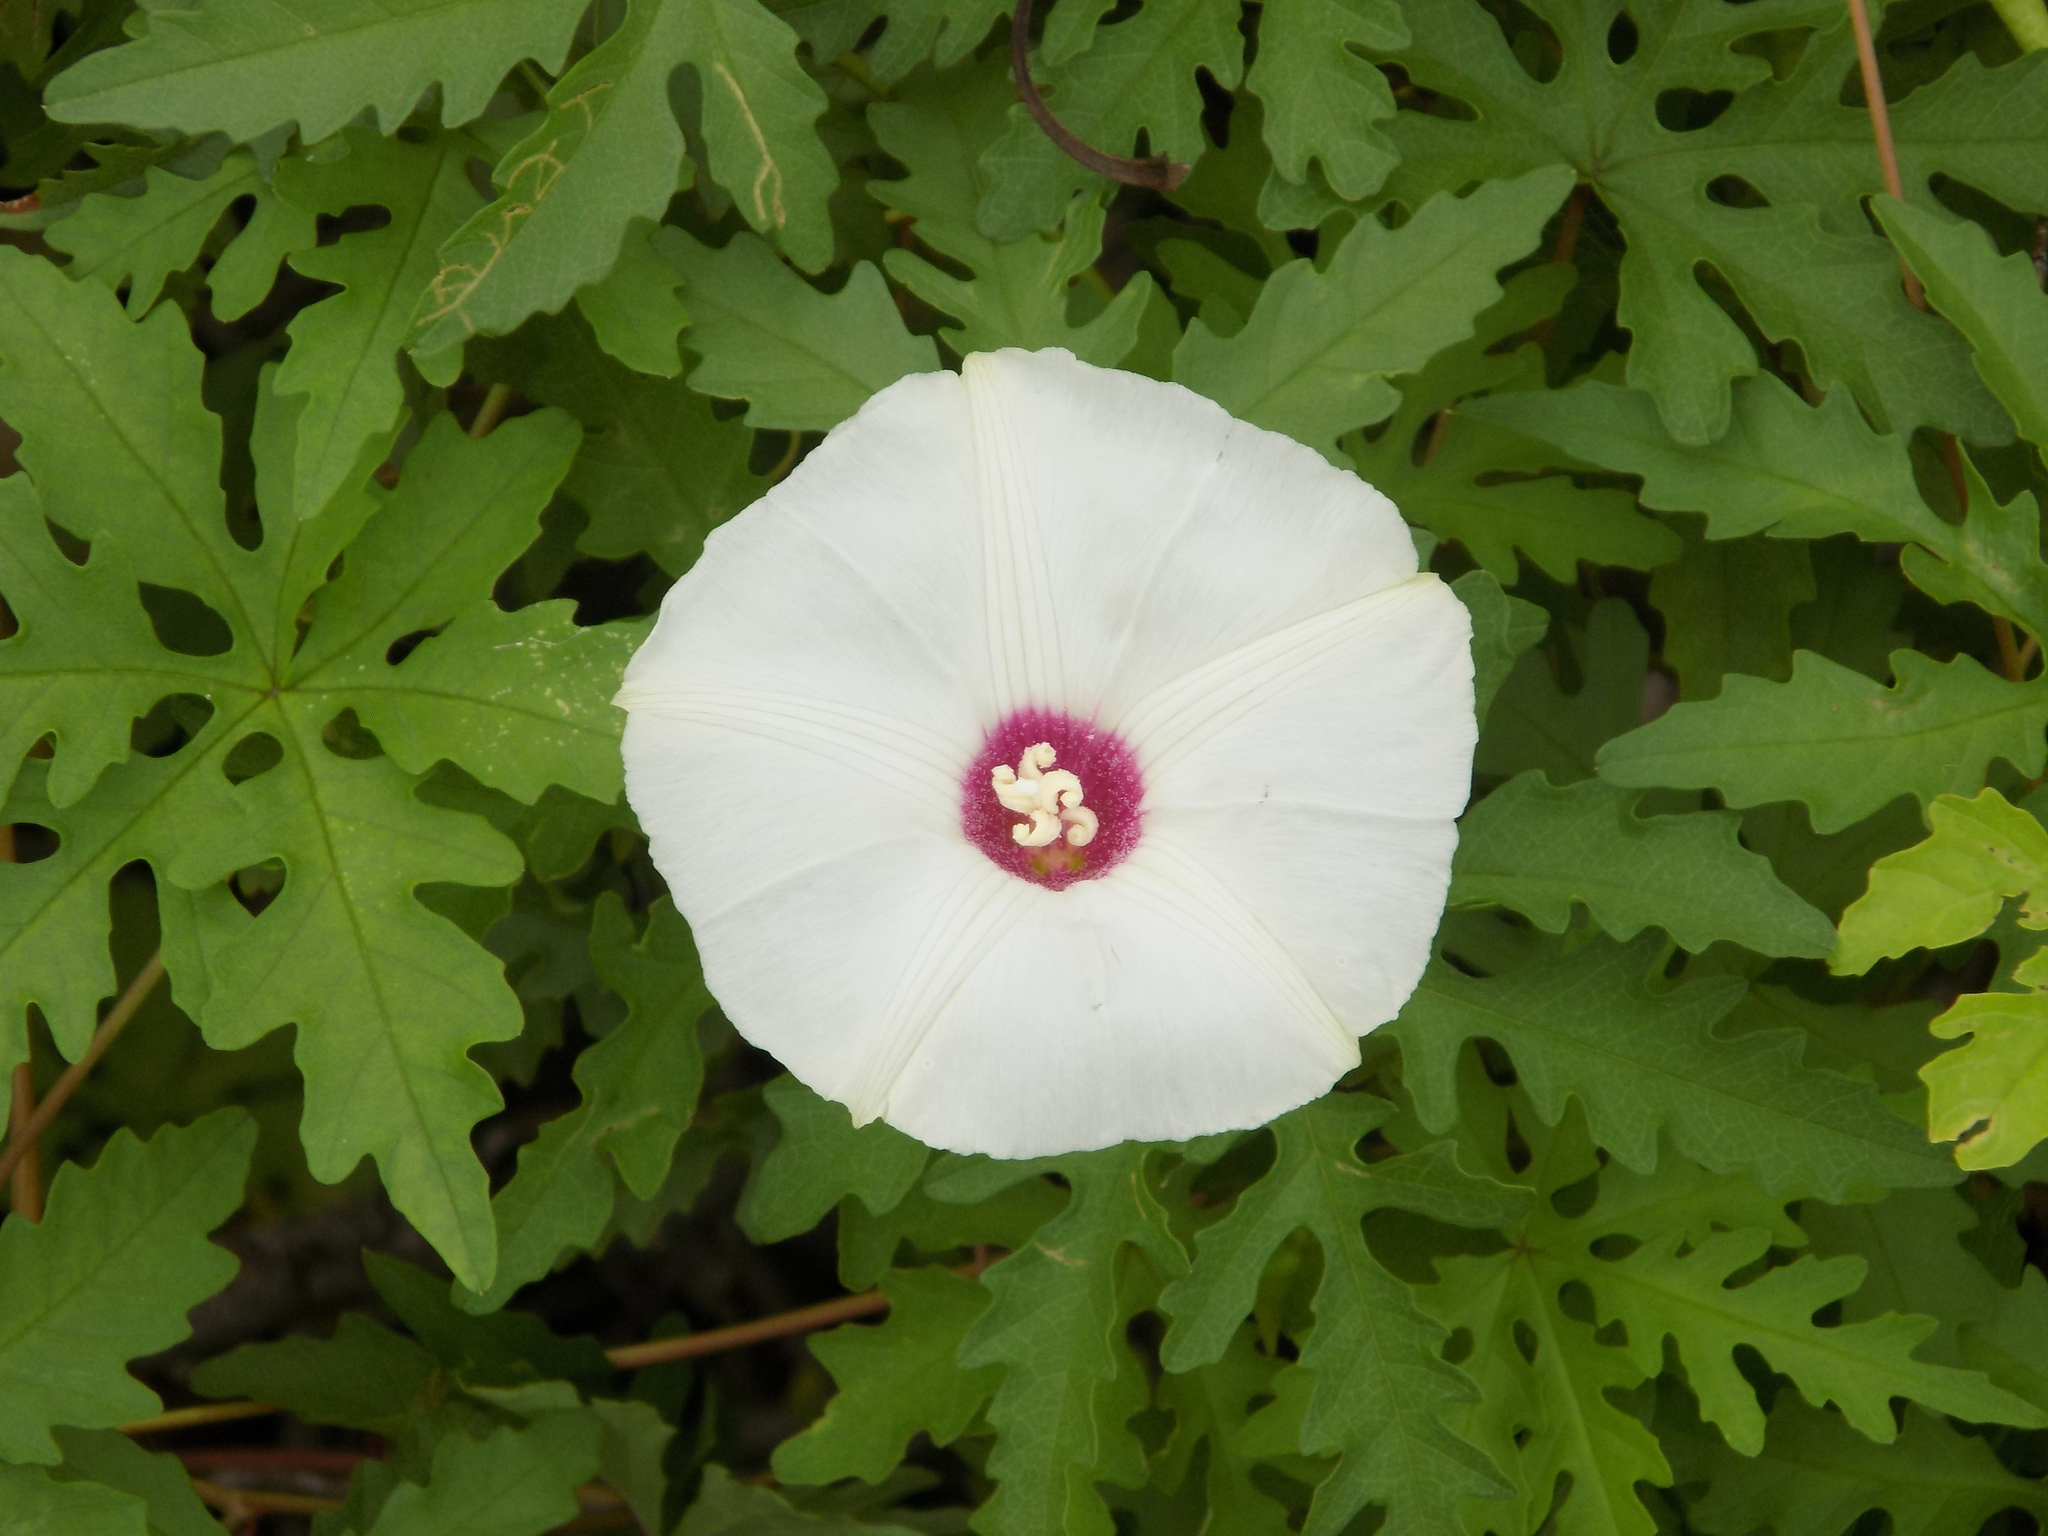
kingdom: Plantae
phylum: Tracheophyta
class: Magnoliopsida
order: Solanales
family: Convolvulaceae
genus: Distimake
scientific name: Distimake dissectus
